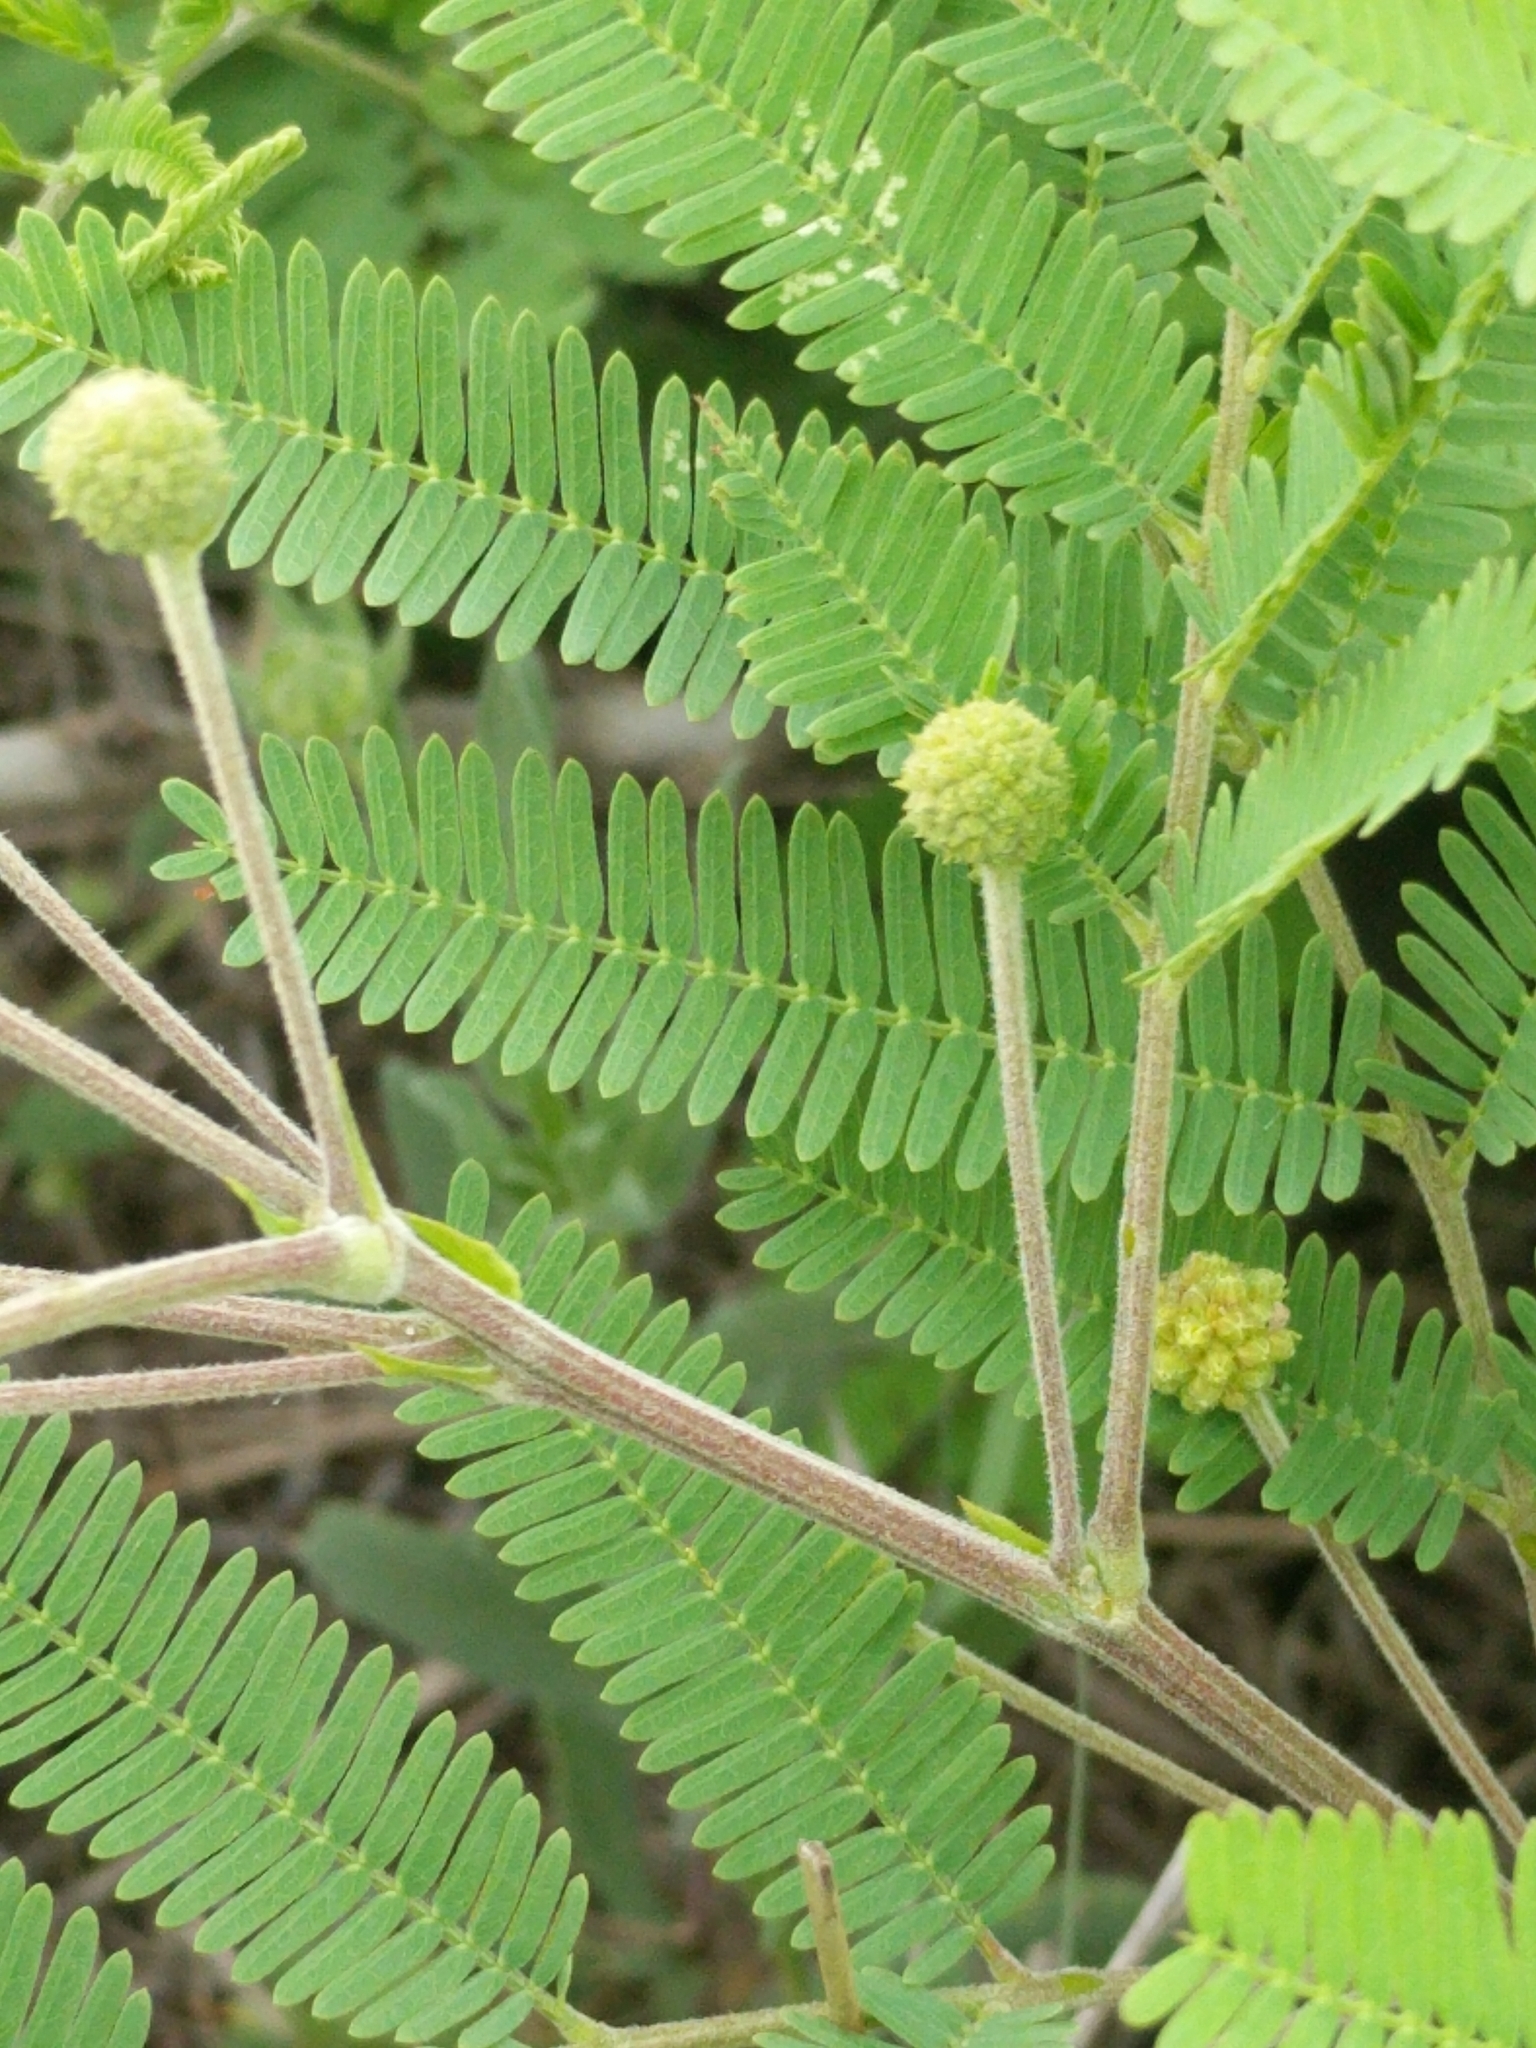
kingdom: Plantae
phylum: Tracheophyta
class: Magnoliopsida
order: Fabales
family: Fabaceae
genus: Senegalia
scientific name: Senegalia berlandieri
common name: Berlandier acacia
